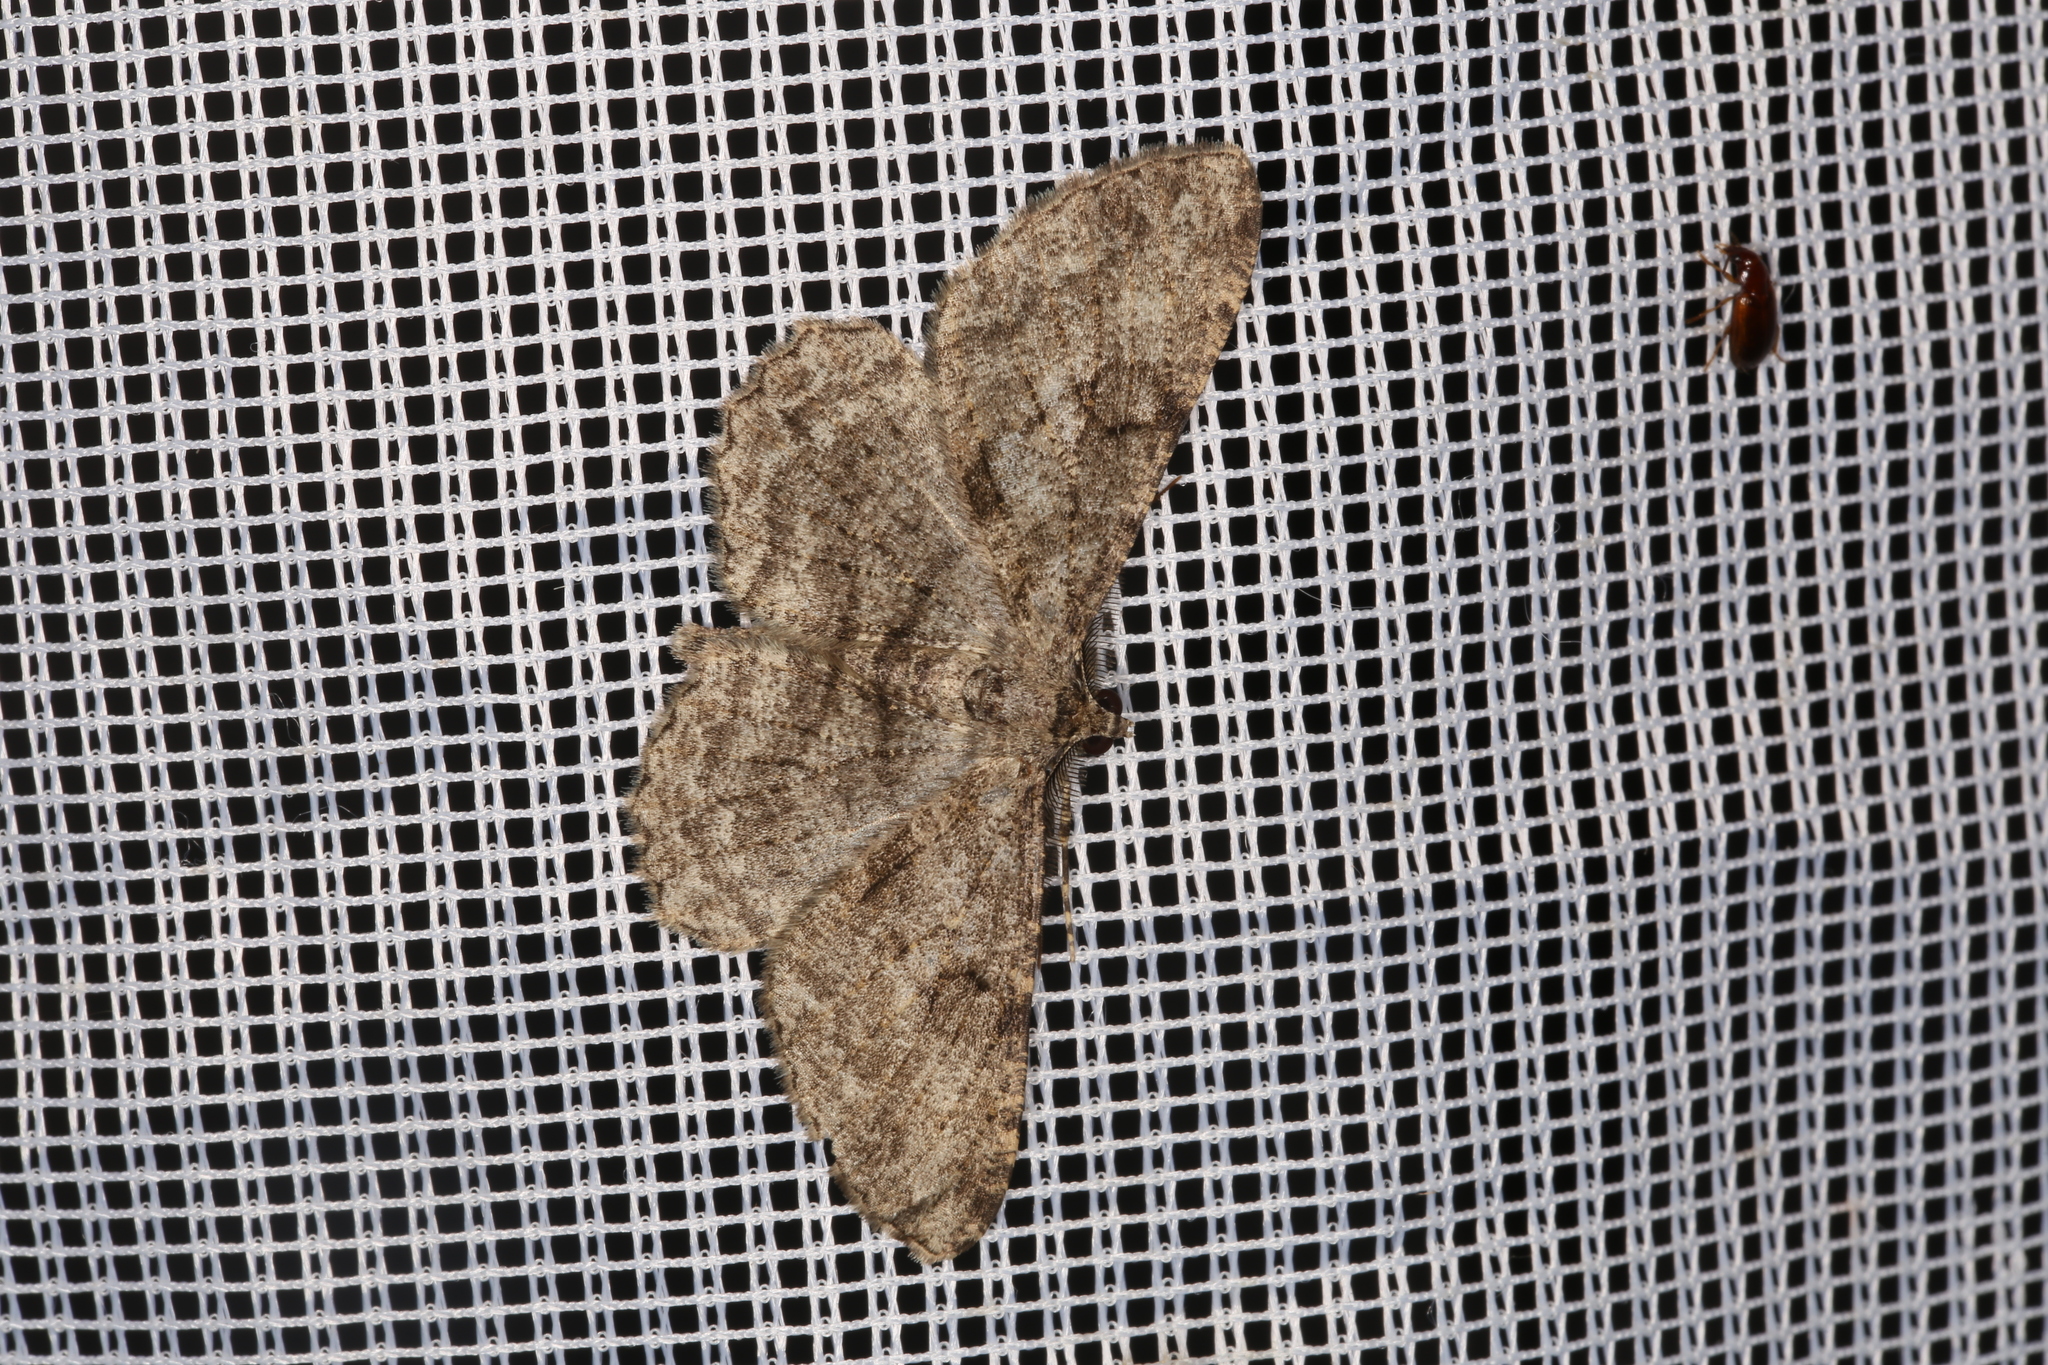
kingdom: Animalia
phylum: Arthropoda
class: Insecta
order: Lepidoptera
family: Geometridae
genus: Peribatodes
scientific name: Peribatodes rhomboidaria
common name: Willow beauty
